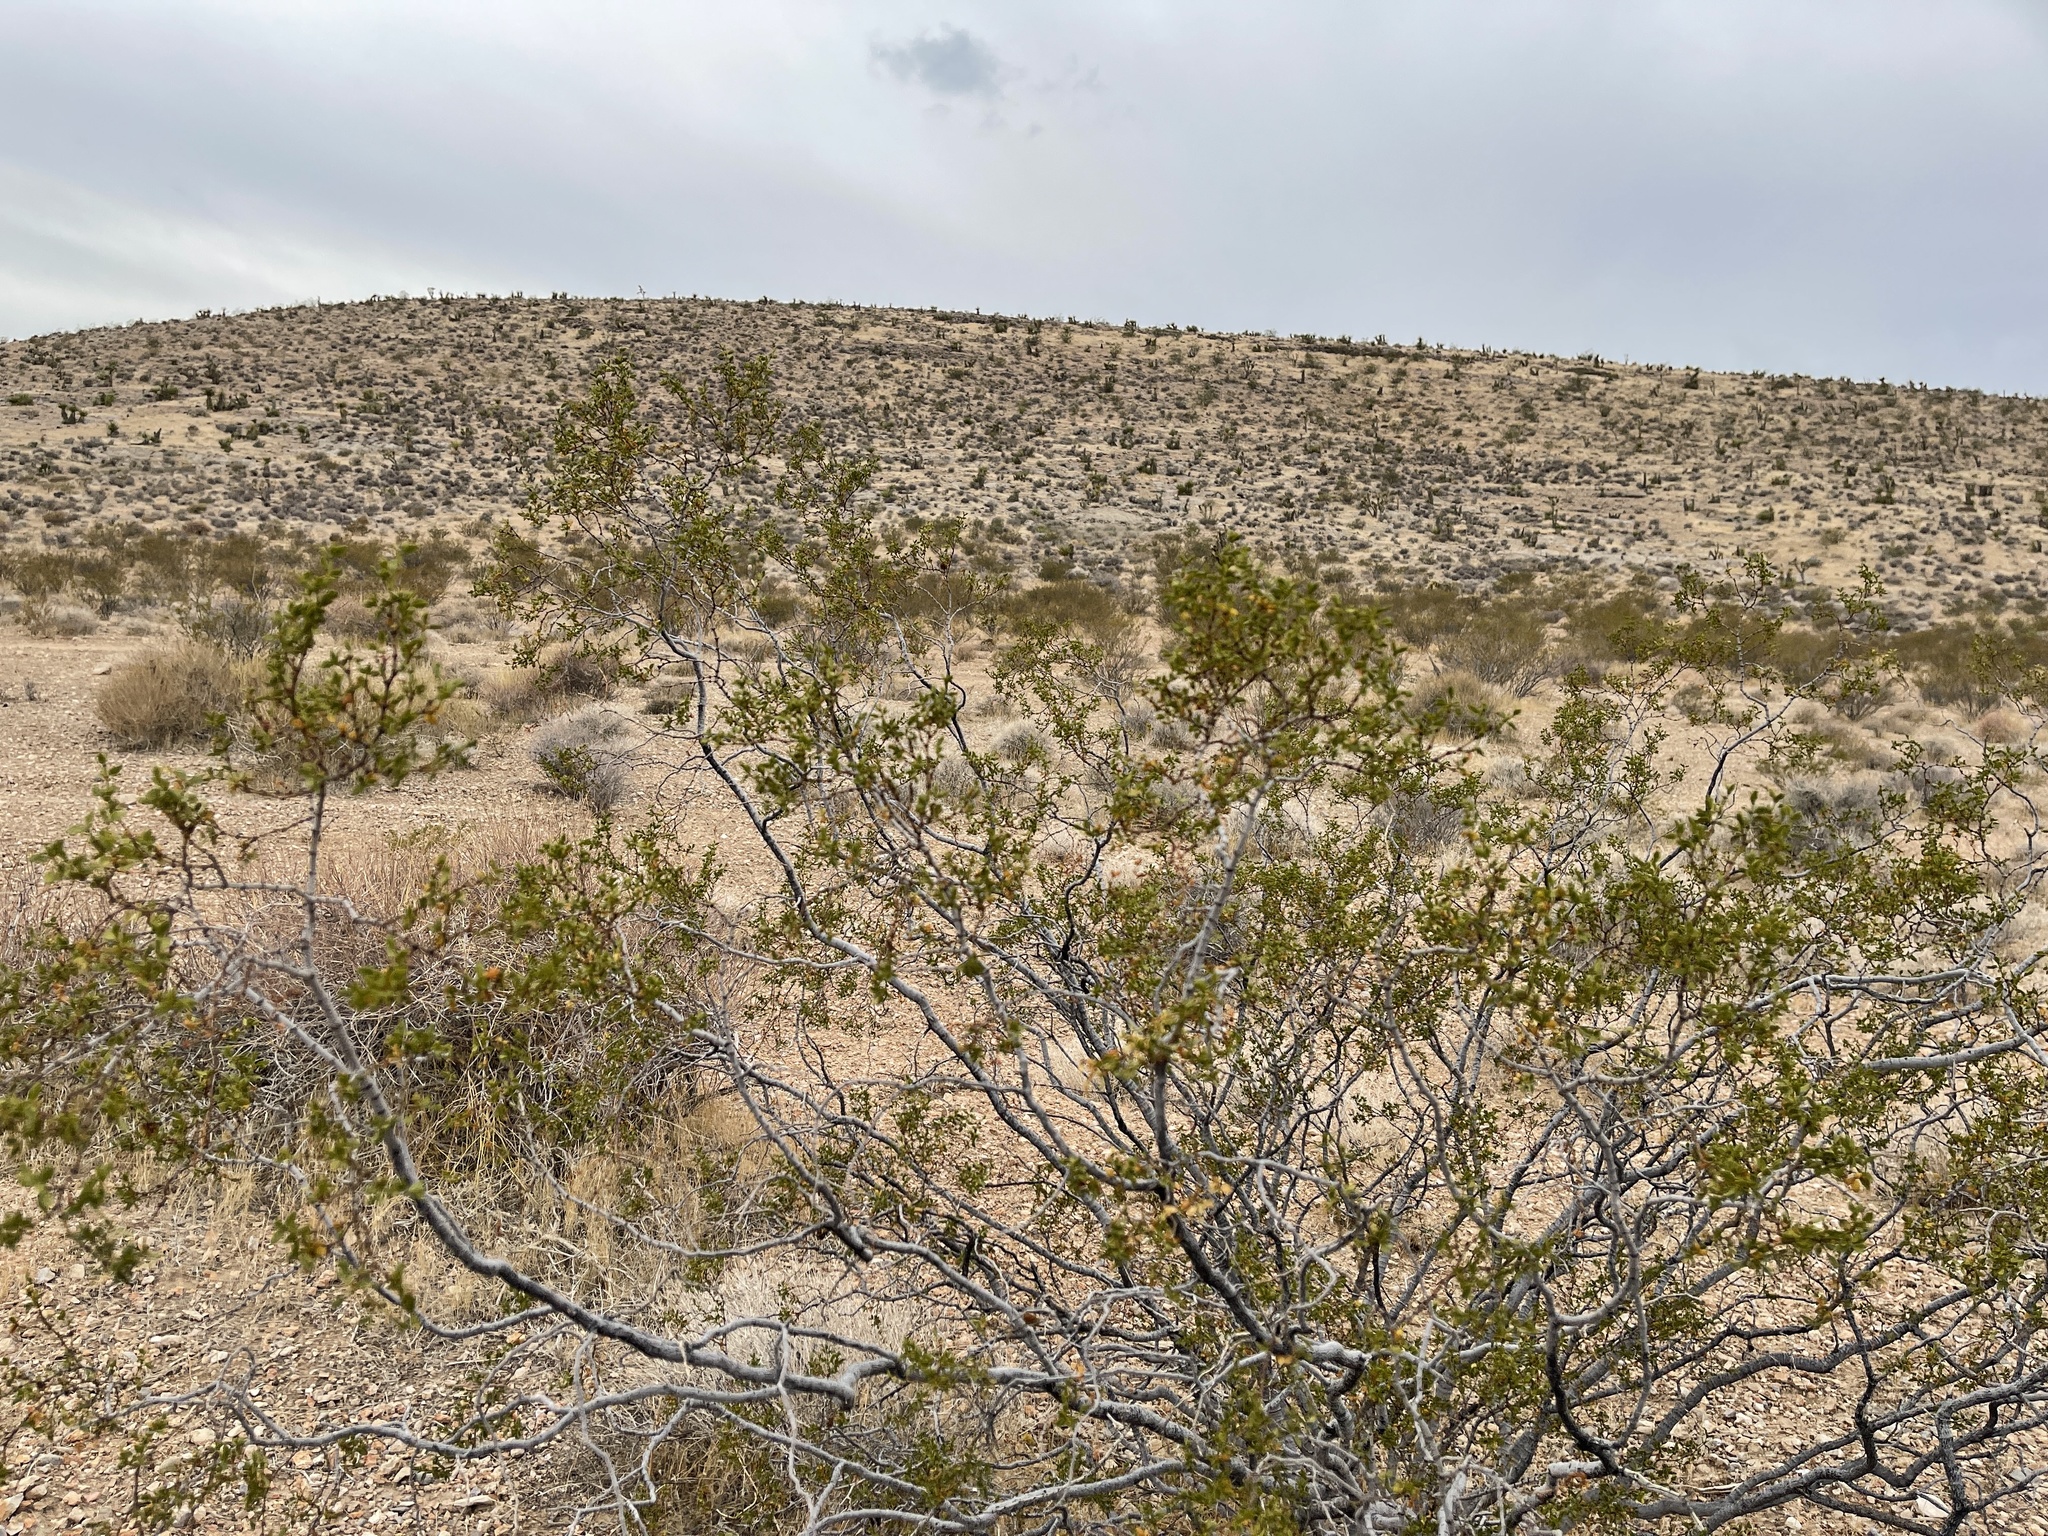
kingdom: Plantae
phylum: Tracheophyta
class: Magnoliopsida
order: Zygophyllales
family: Zygophyllaceae
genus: Larrea
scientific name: Larrea tridentata
